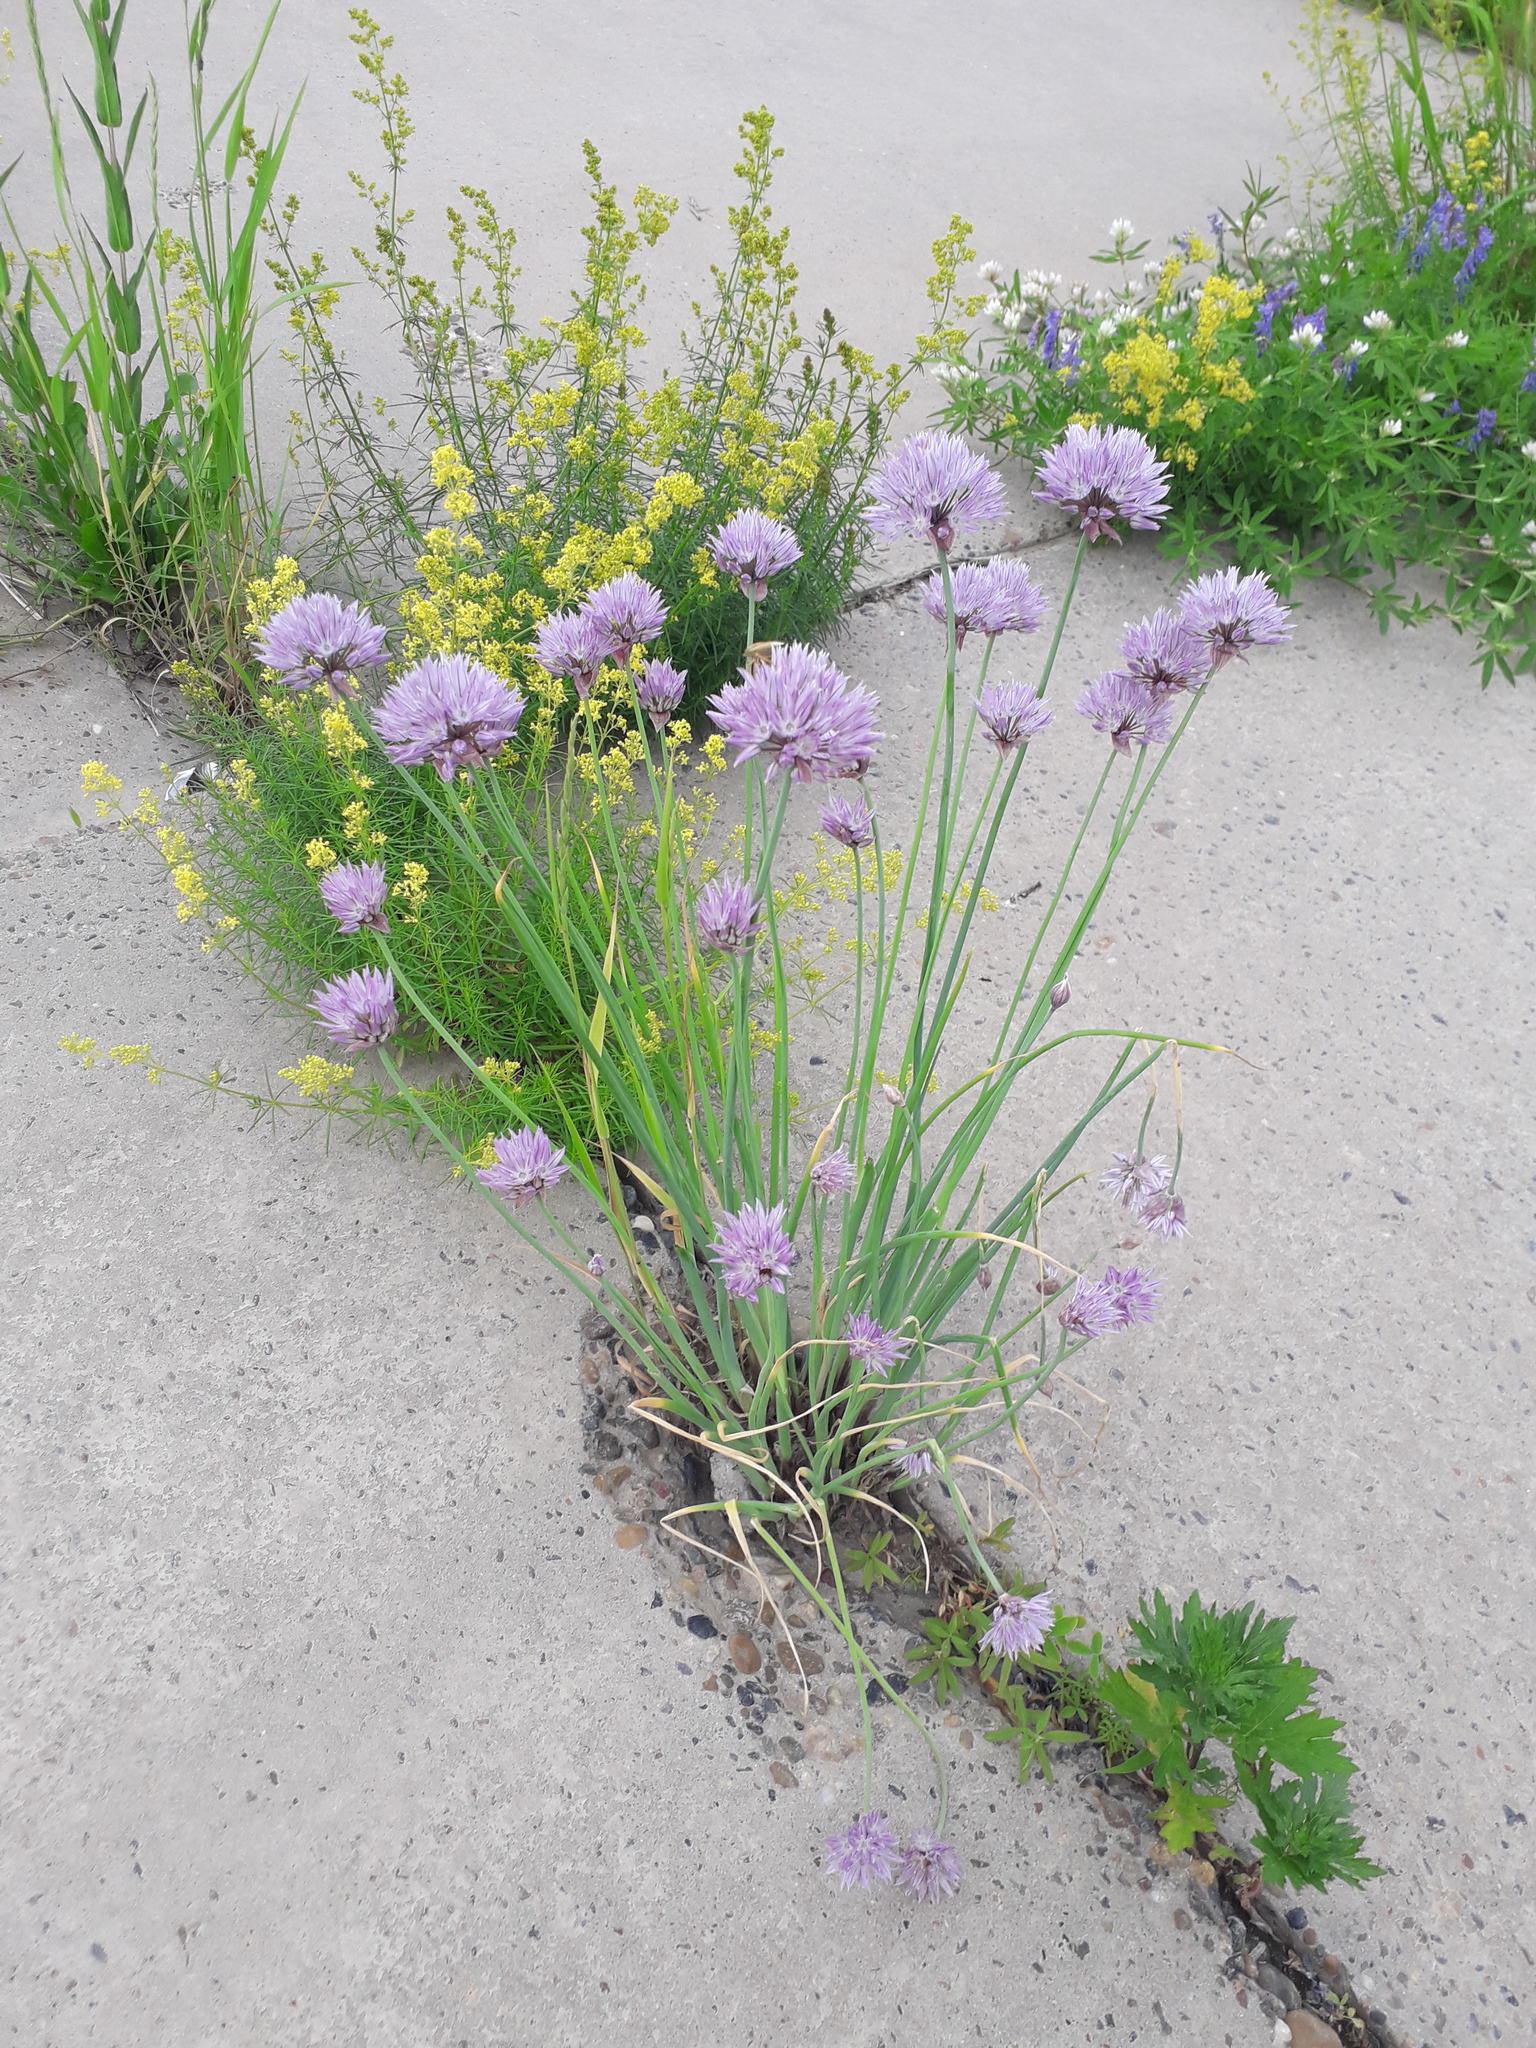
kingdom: Plantae
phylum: Tracheophyta
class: Liliopsida
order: Asparagales
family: Amaryllidaceae
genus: Allium
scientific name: Allium schoenoprasum
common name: Chives
